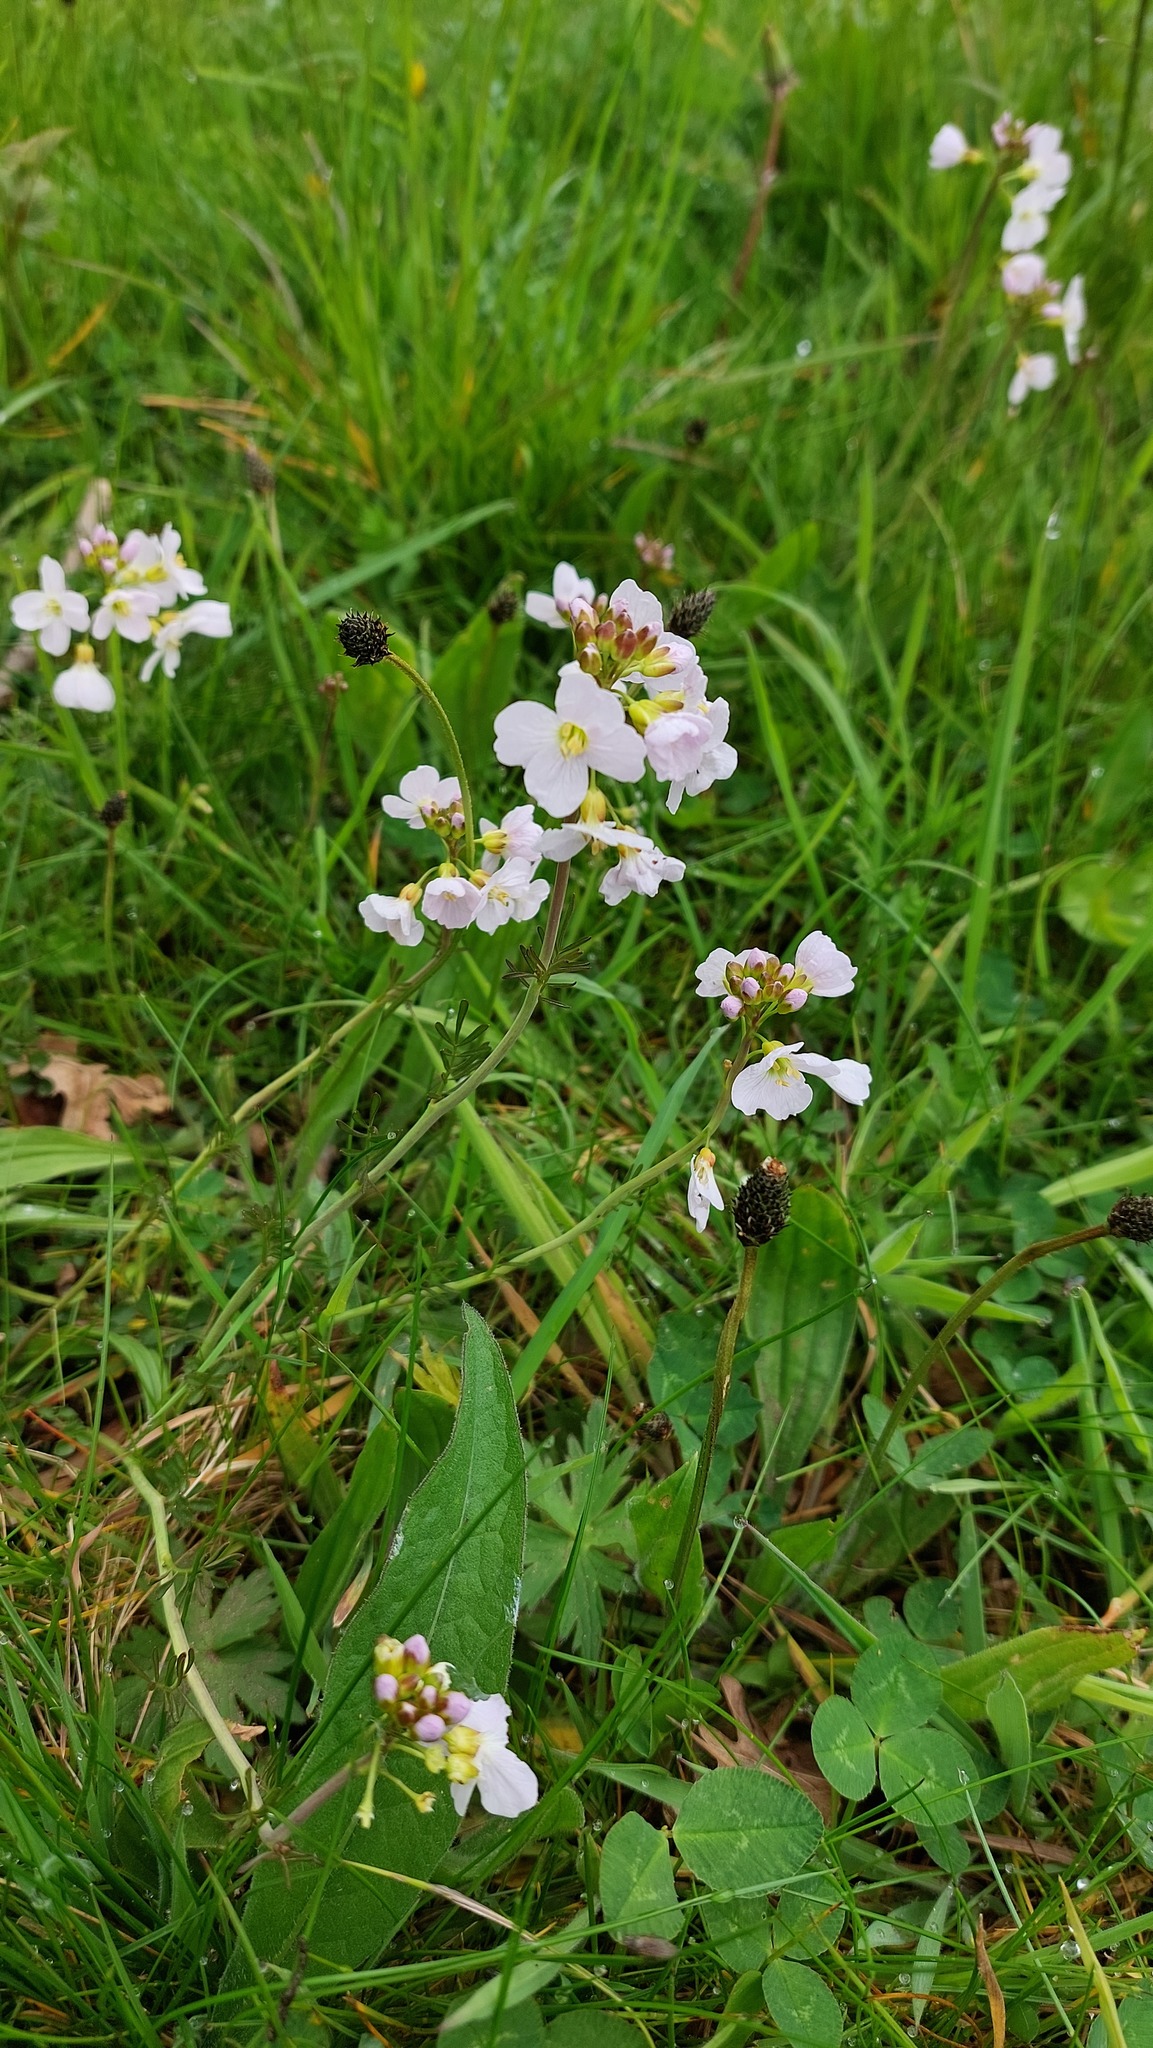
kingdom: Plantae
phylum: Tracheophyta
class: Magnoliopsida
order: Brassicales
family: Brassicaceae
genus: Cardamine
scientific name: Cardamine pratensis
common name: Cuckoo flower
